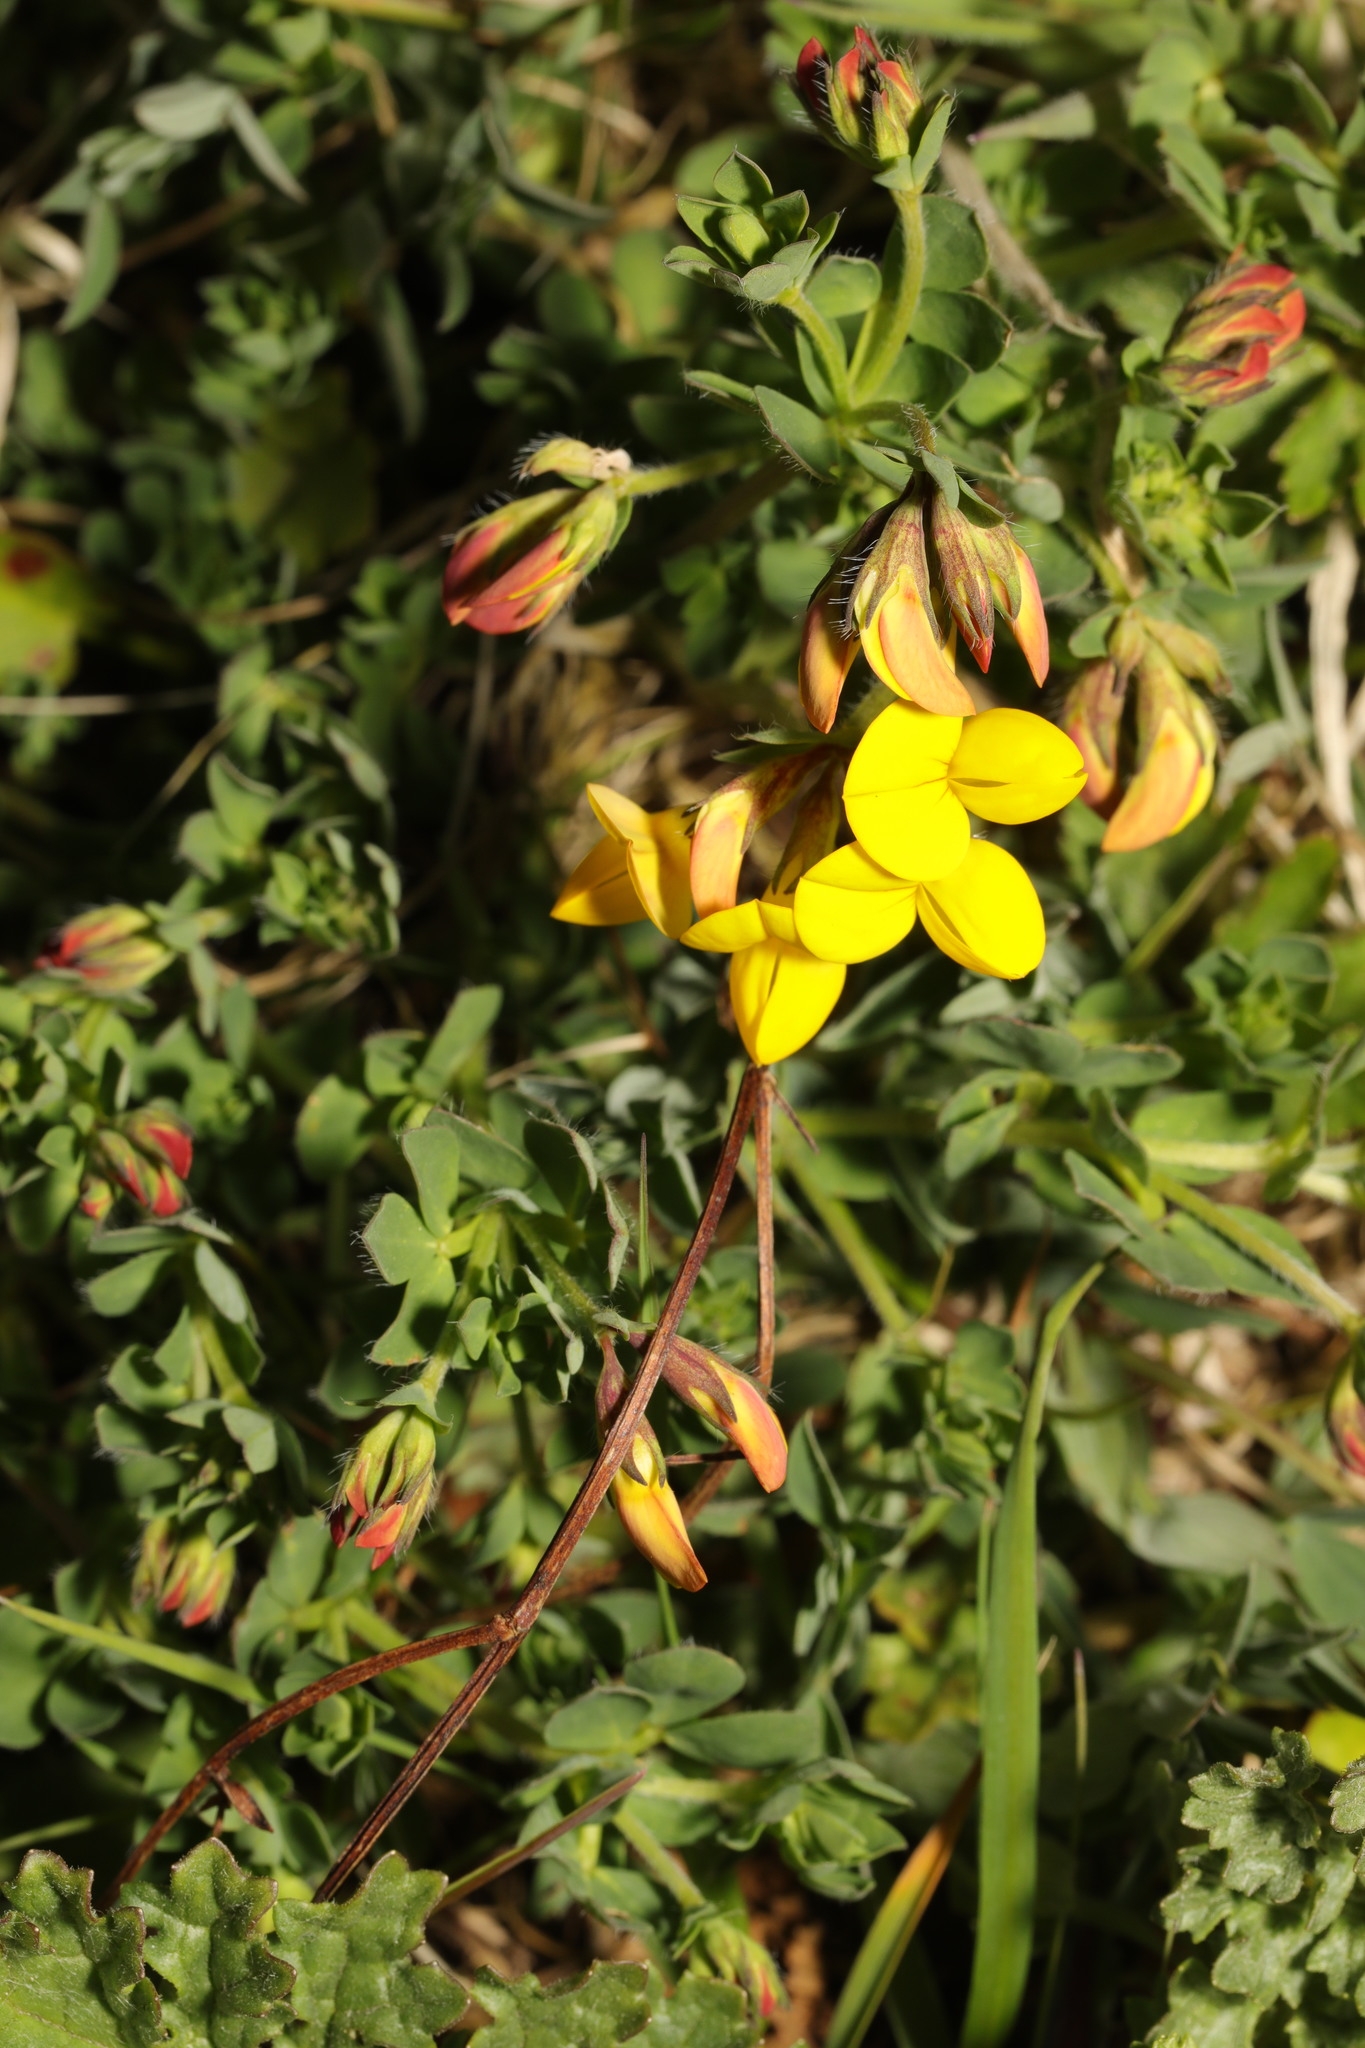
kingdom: Plantae
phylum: Tracheophyta
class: Magnoliopsida
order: Fabales
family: Fabaceae
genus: Lotus
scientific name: Lotus corniculatus
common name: Common bird's-foot-trefoil
